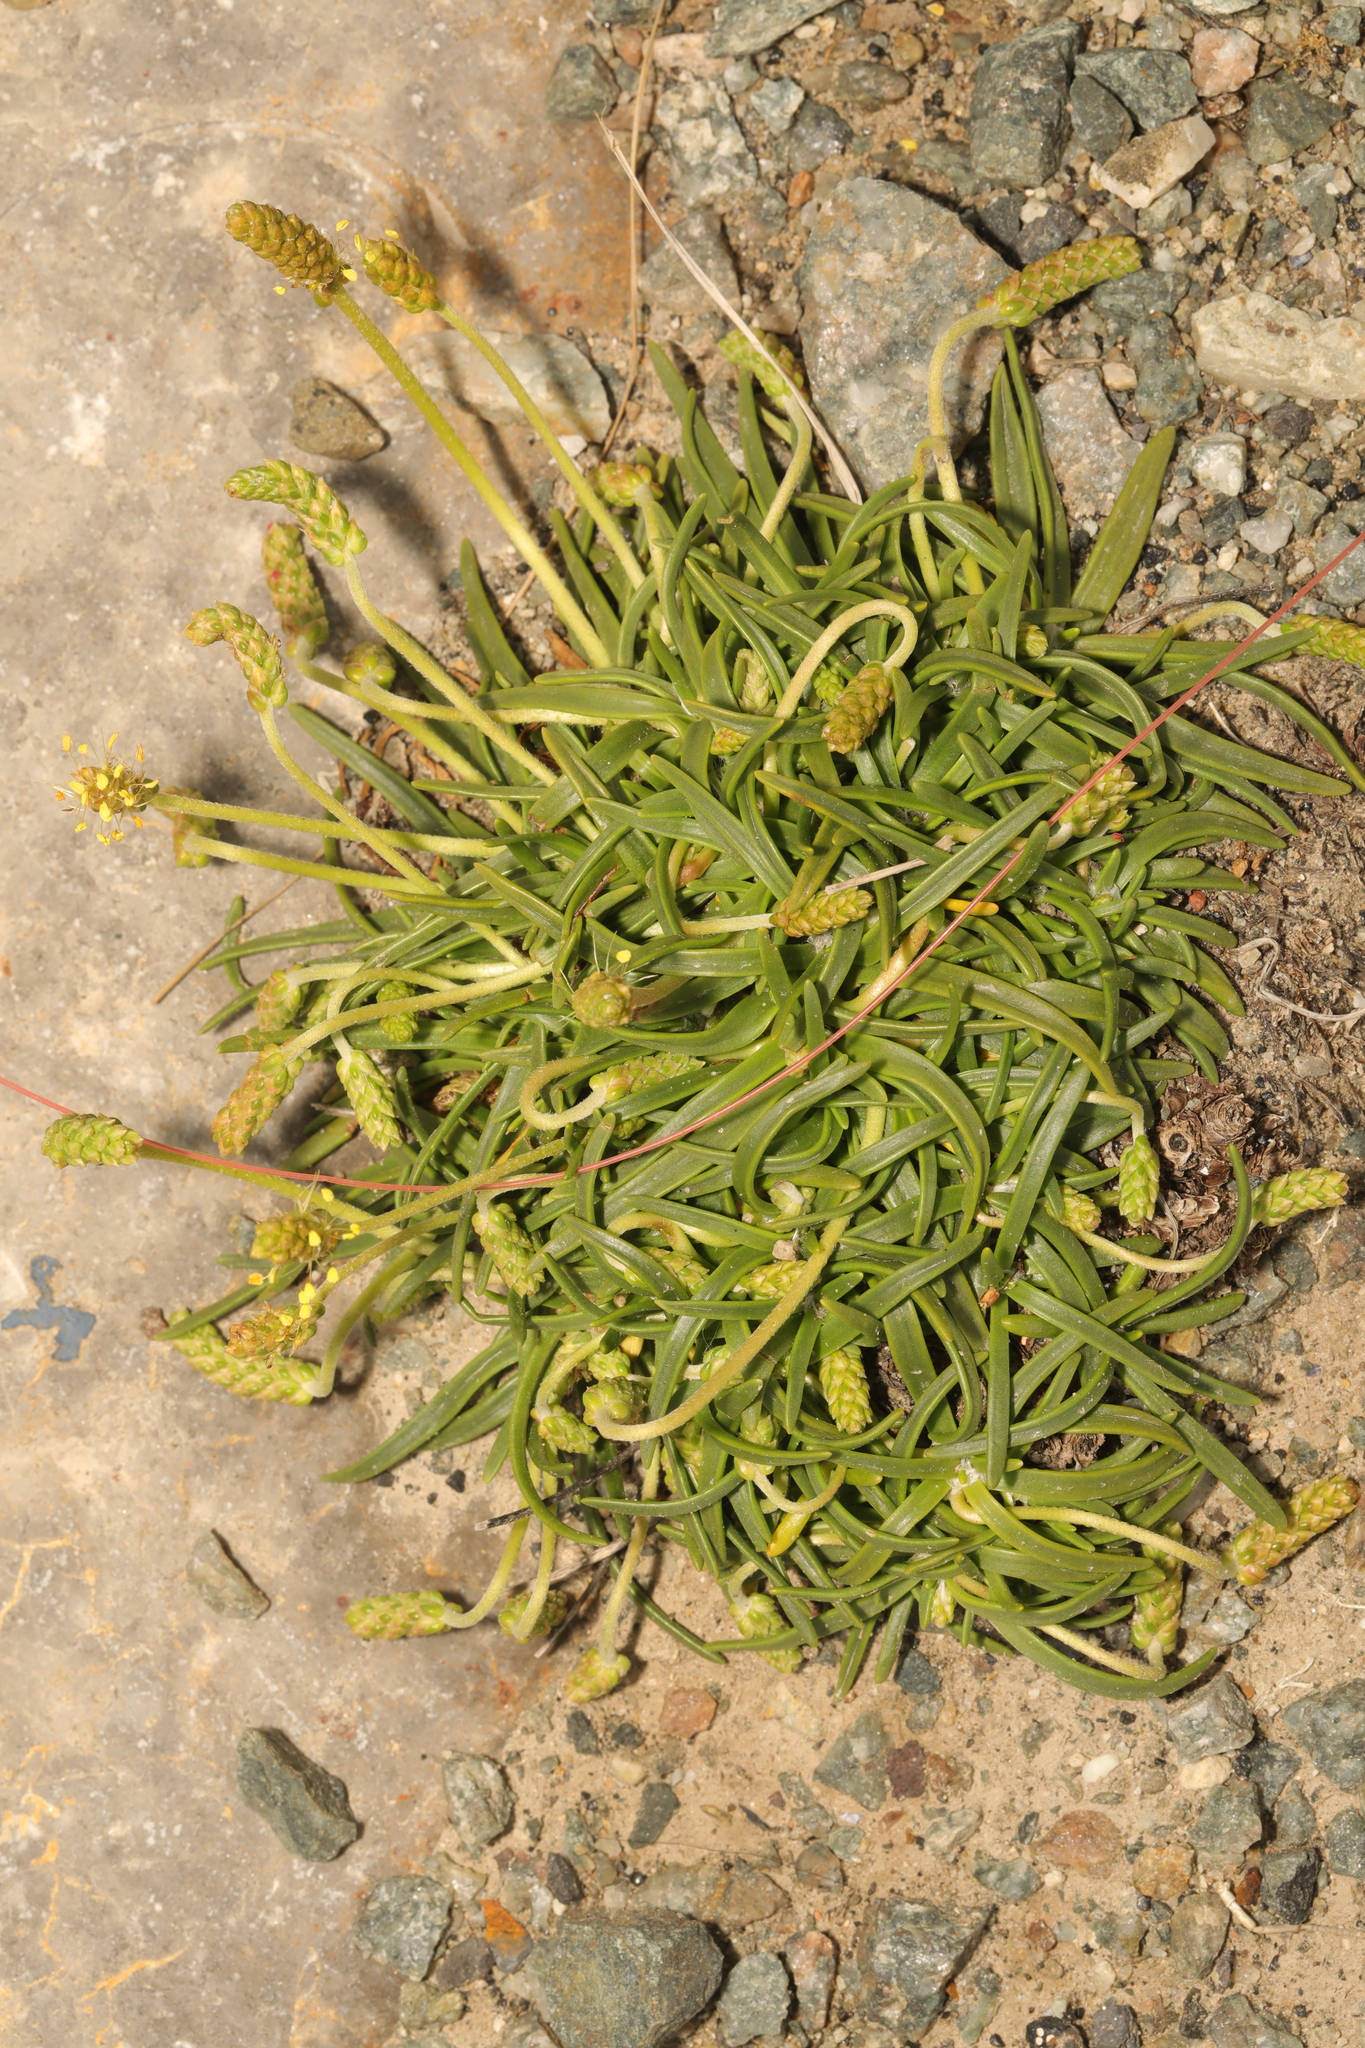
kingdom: Plantae
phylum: Tracheophyta
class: Magnoliopsida
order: Lamiales
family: Plantaginaceae
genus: Plantago
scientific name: Plantago maritima
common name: Sea plantain
